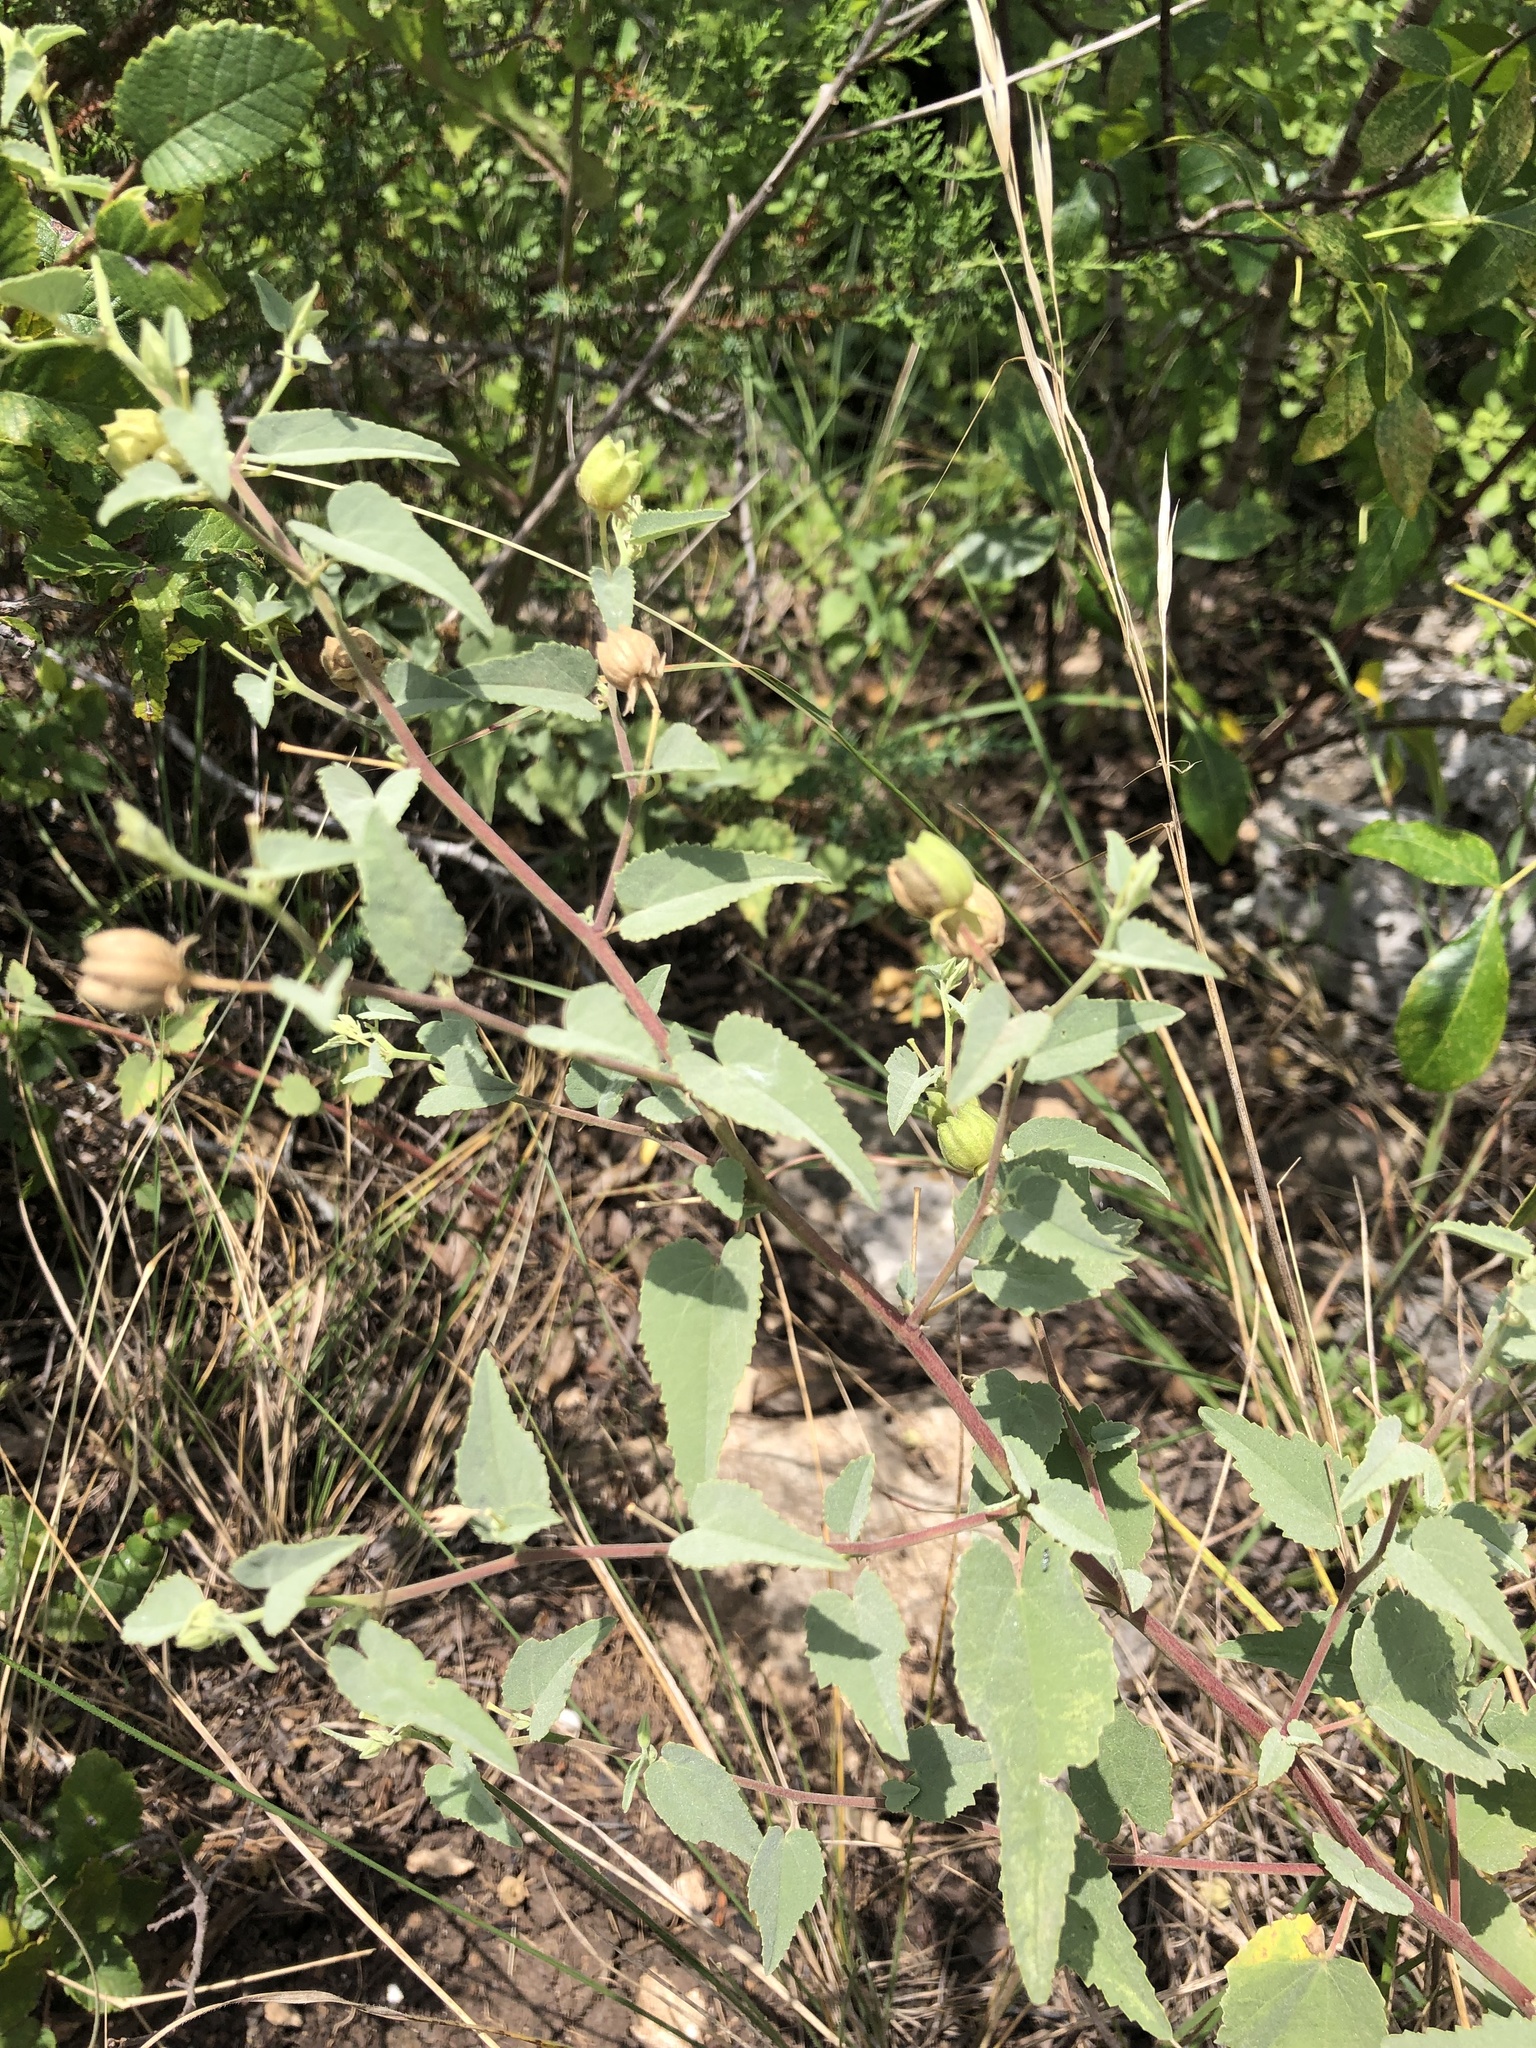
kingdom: Plantae
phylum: Tracheophyta
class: Magnoliopsida
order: Malvales
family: Malvaceae
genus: Abutilon
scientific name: Abutilon fruticosum
